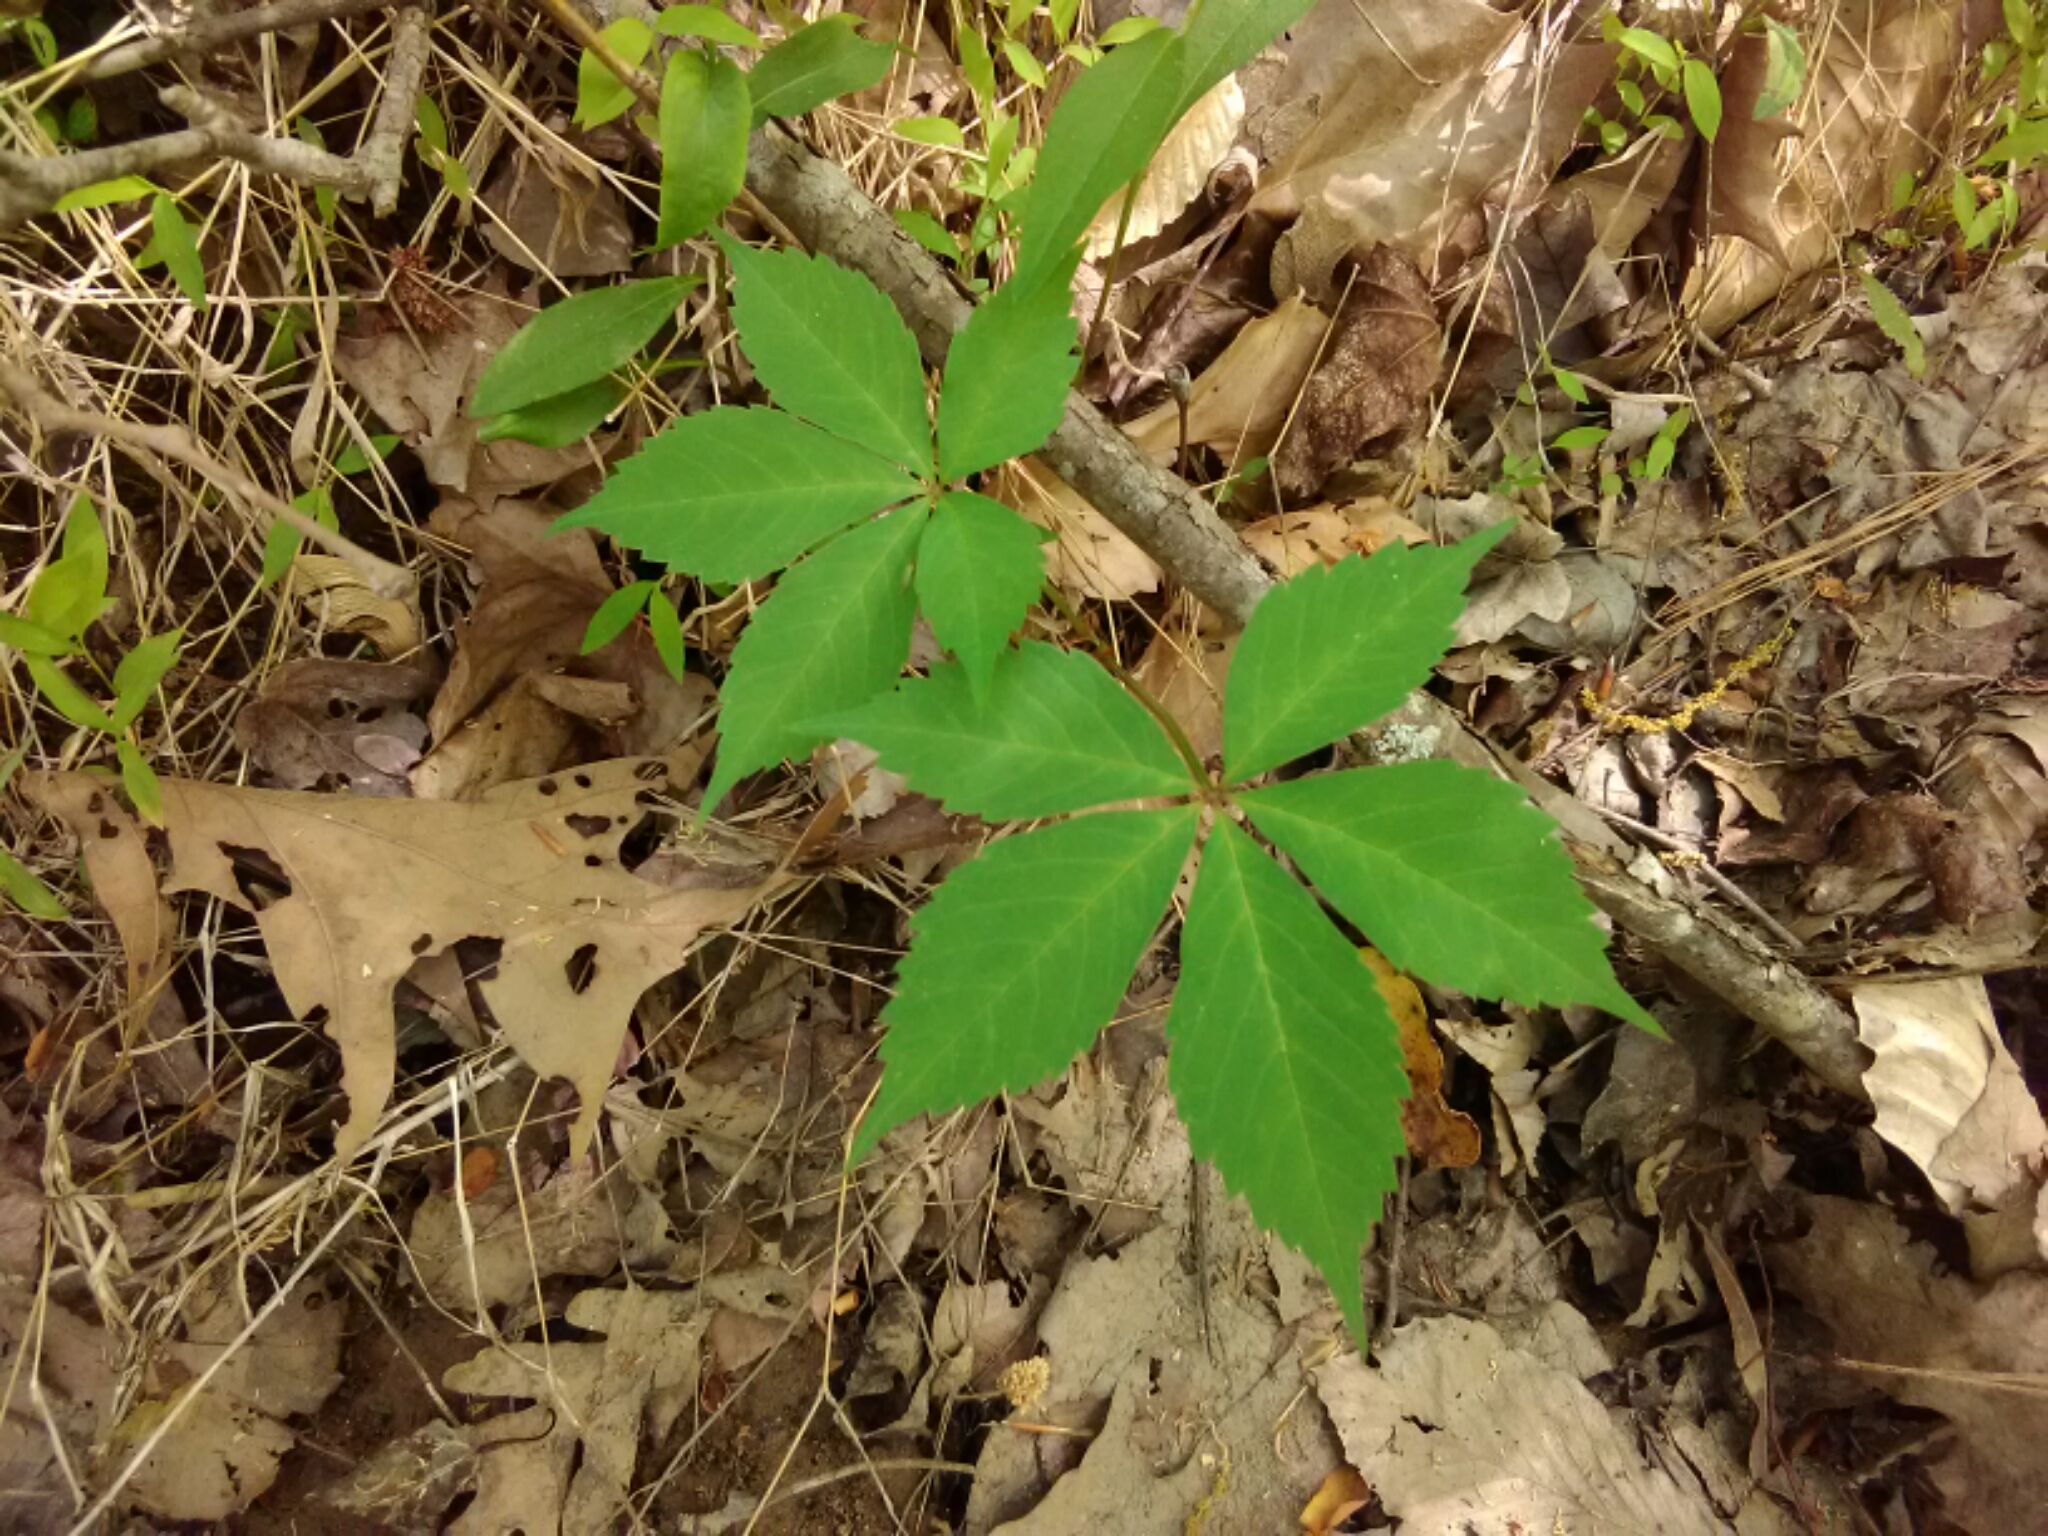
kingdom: Plantae
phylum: Tracheophyta
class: Magnoliopsida
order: Vitales
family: Vitaceae
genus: Parthenocissus
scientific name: Parthenocissus quinquefolia
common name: Virginia-creeper
